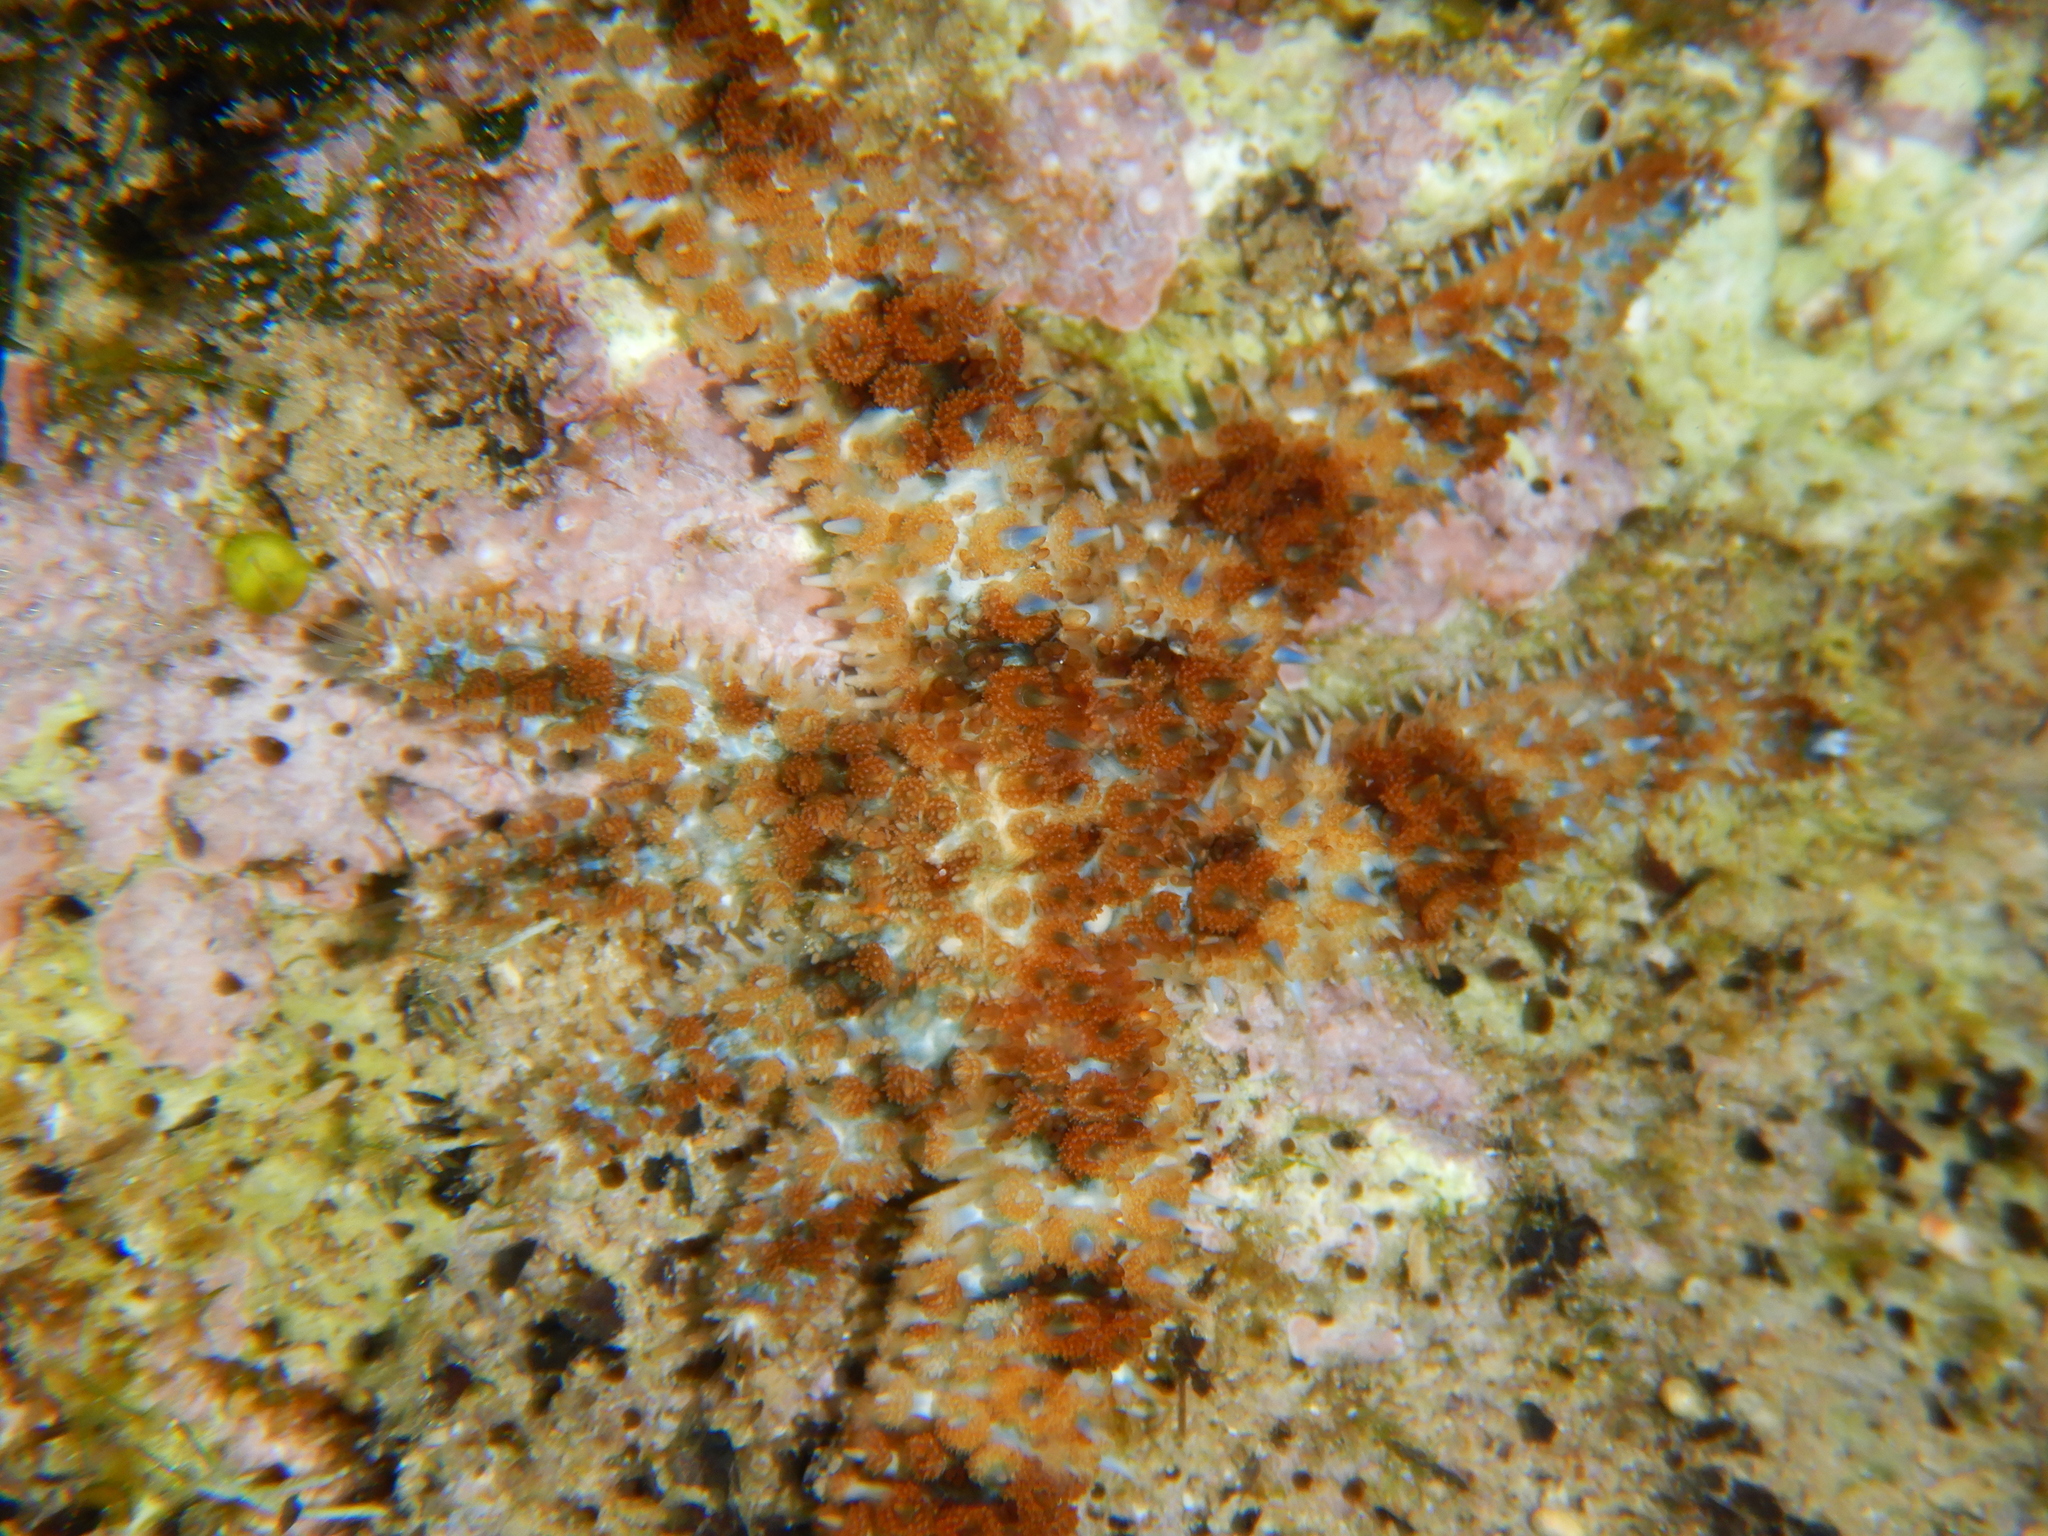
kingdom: Animalia
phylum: Echinodermata
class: Asteroidea
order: Forcipulatida
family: Asteriidae
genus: Coscinasterias
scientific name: Coscinasterias tenuispina
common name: Blue spiny starfish
